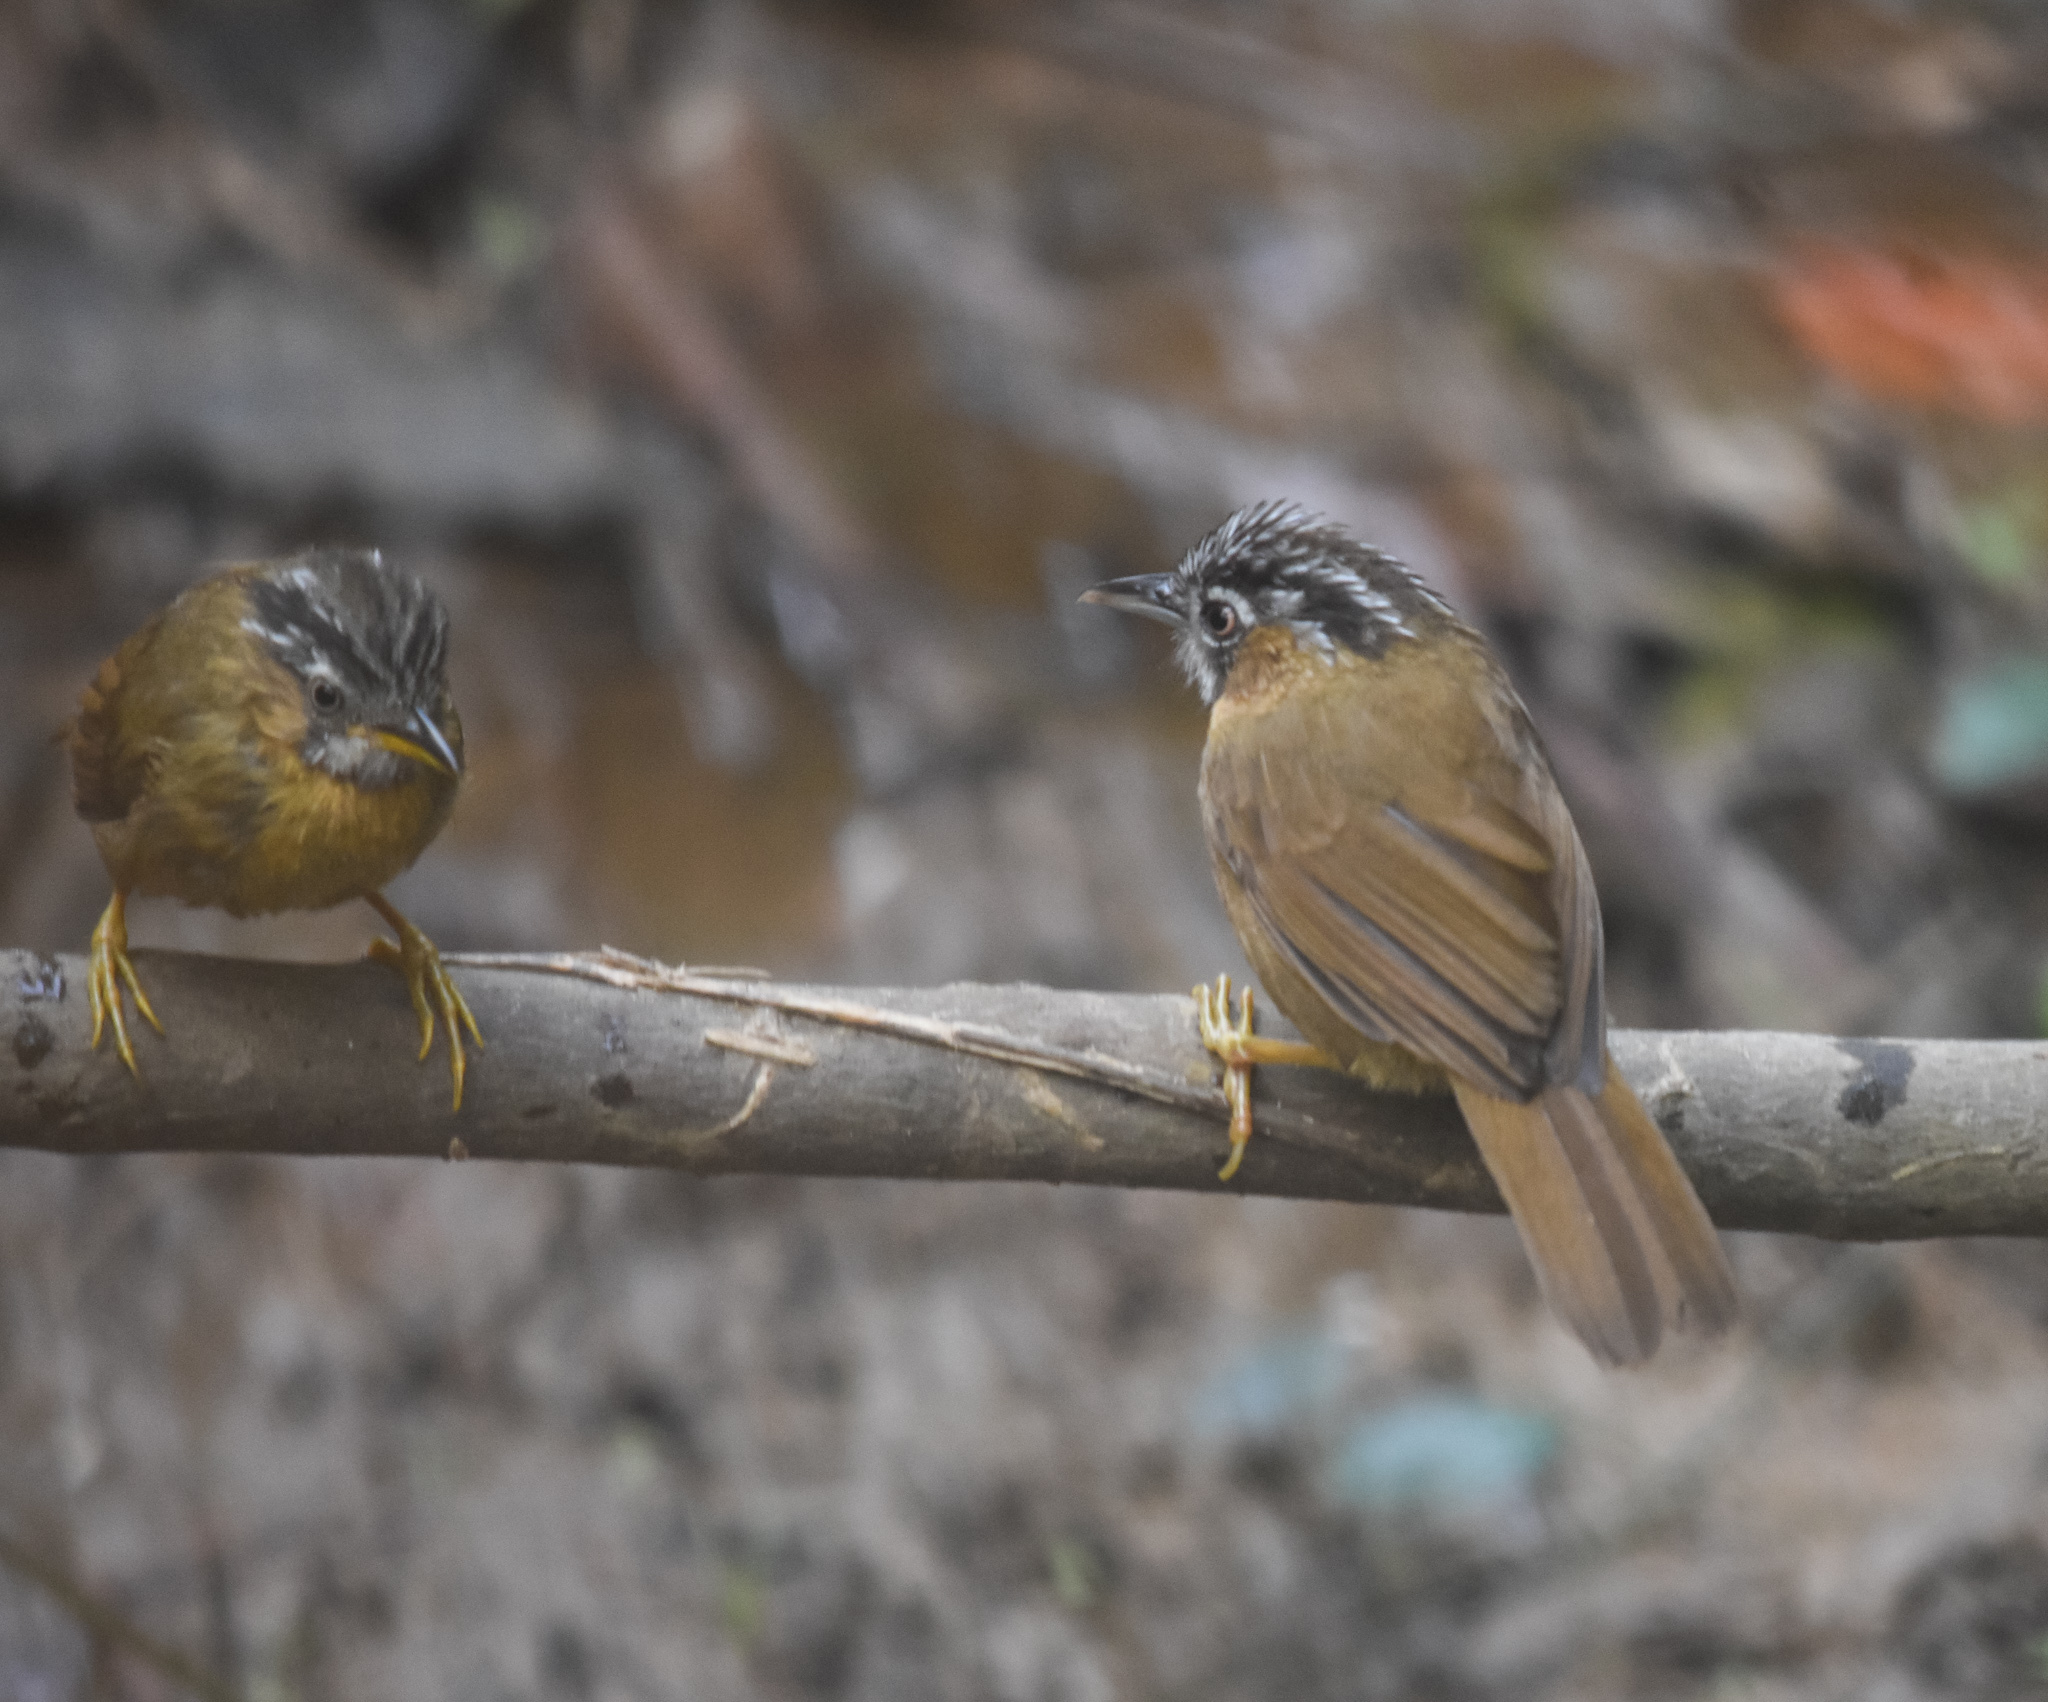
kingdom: Animalia
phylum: Chordata
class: Aves
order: Passeriformes
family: Timaliidae
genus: Stachyris
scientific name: Stachyris nigriceps
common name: Grey-throated babbler
